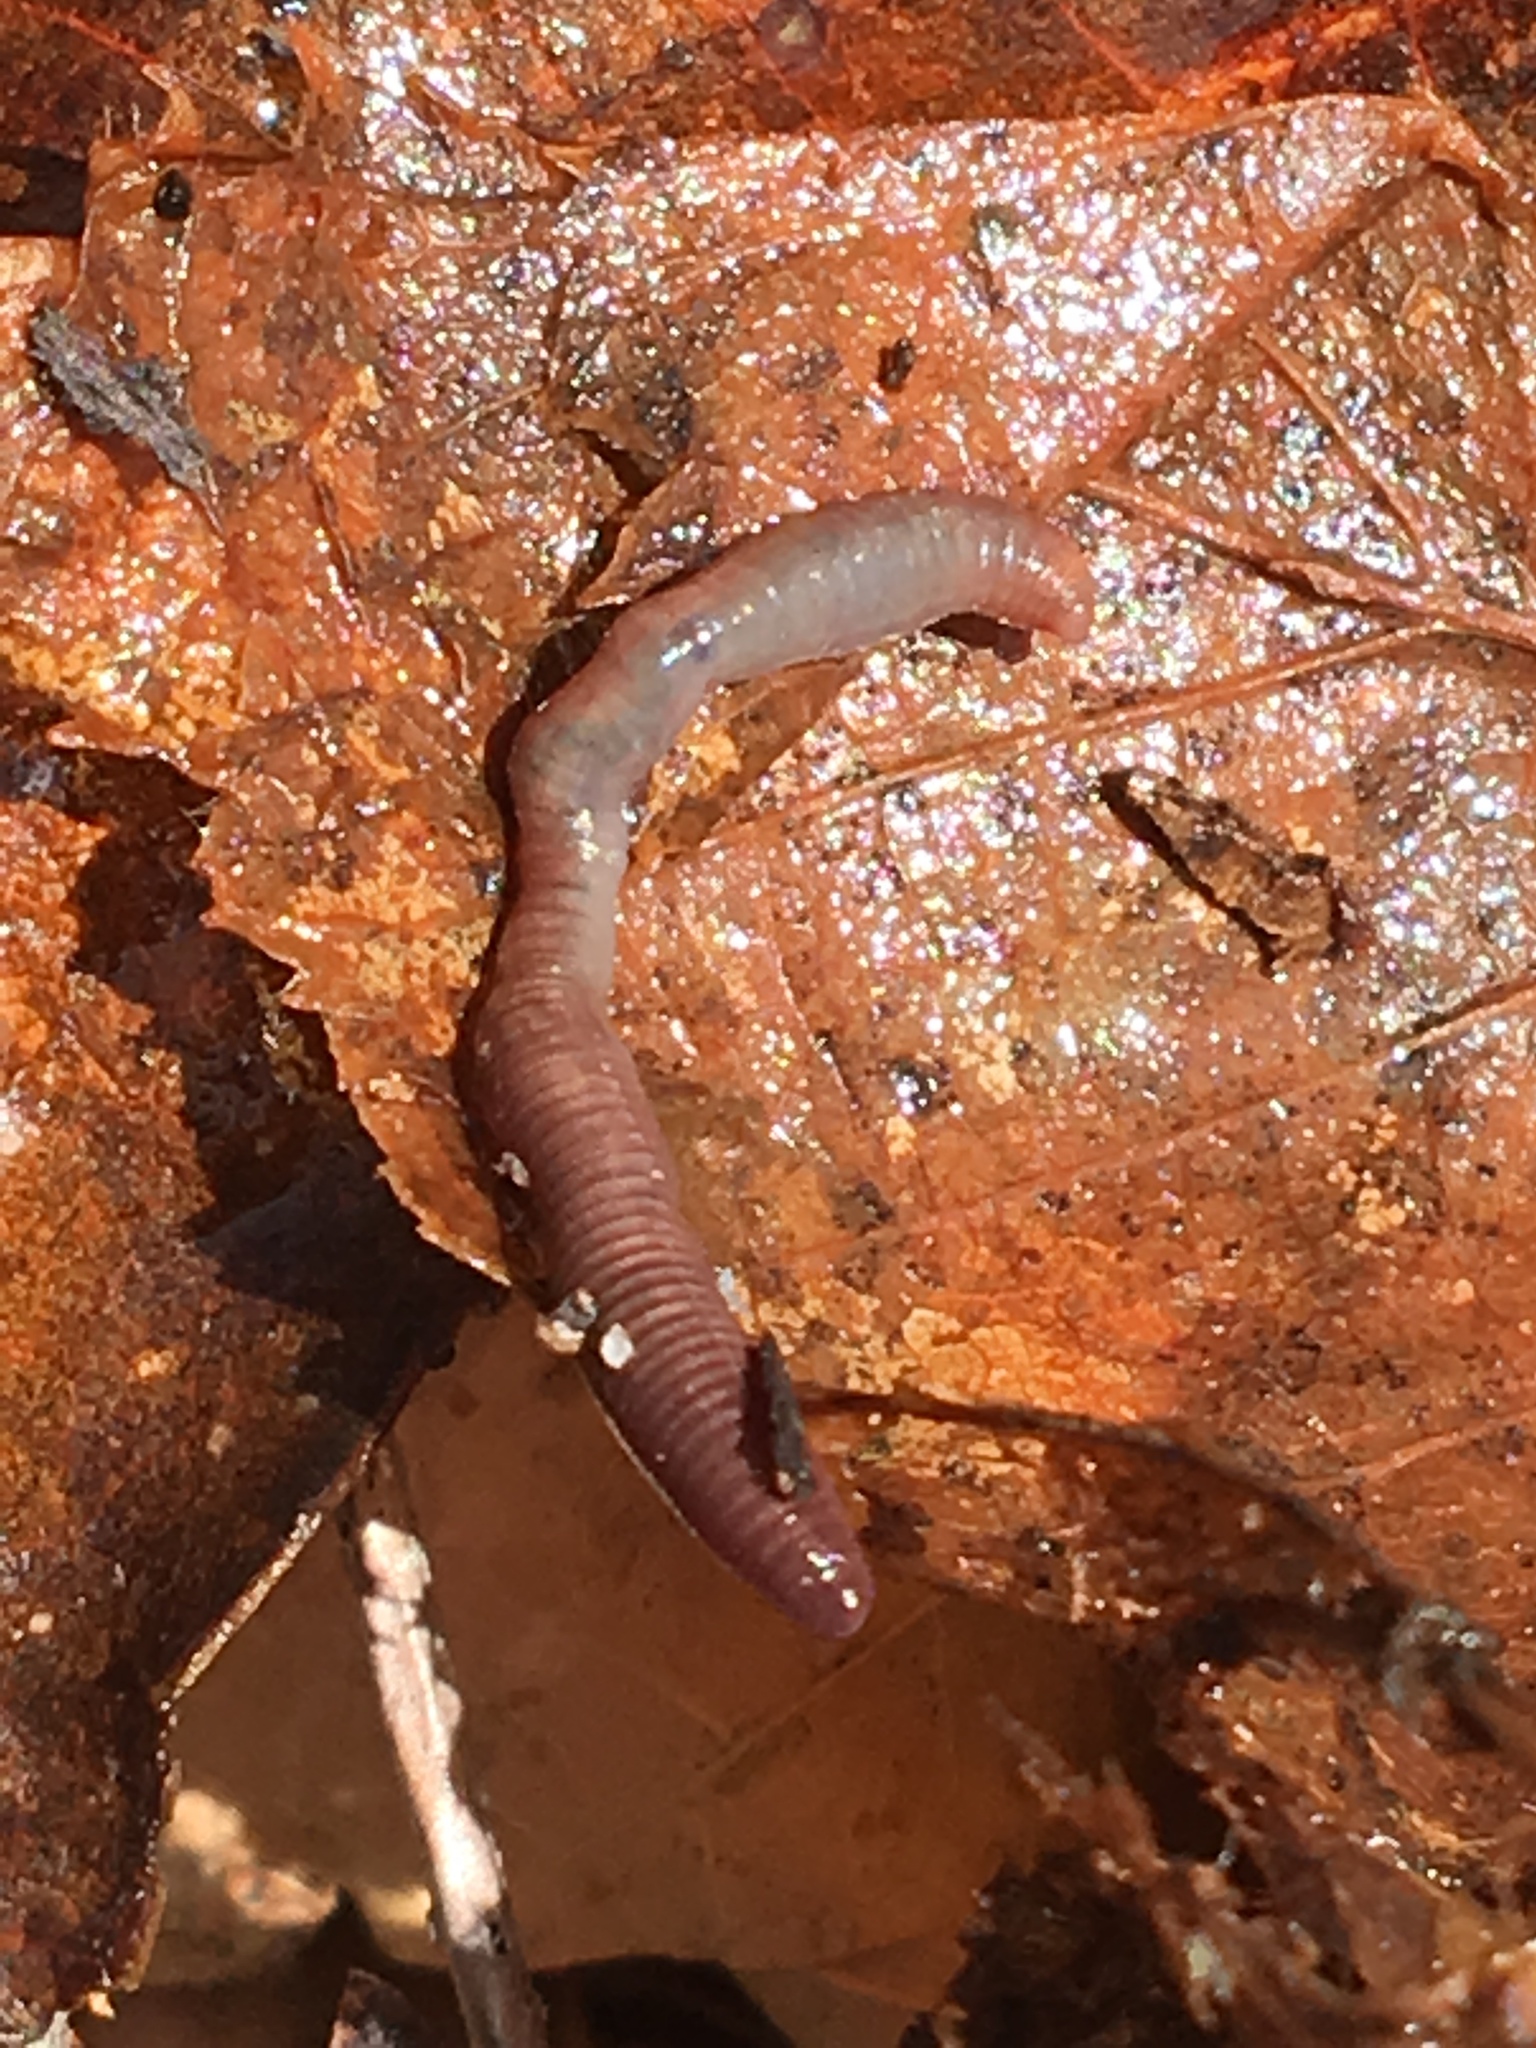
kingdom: Animalia
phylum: Annelida
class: Clitellata
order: Crassiclitellata
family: Lumbricidae
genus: Lumbricus
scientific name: Lumbricus terrestris
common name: Common earthworm
